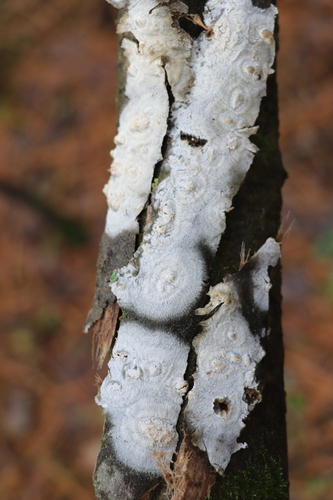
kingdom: Fungi
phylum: Basidiomycota
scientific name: Basidiomycota
